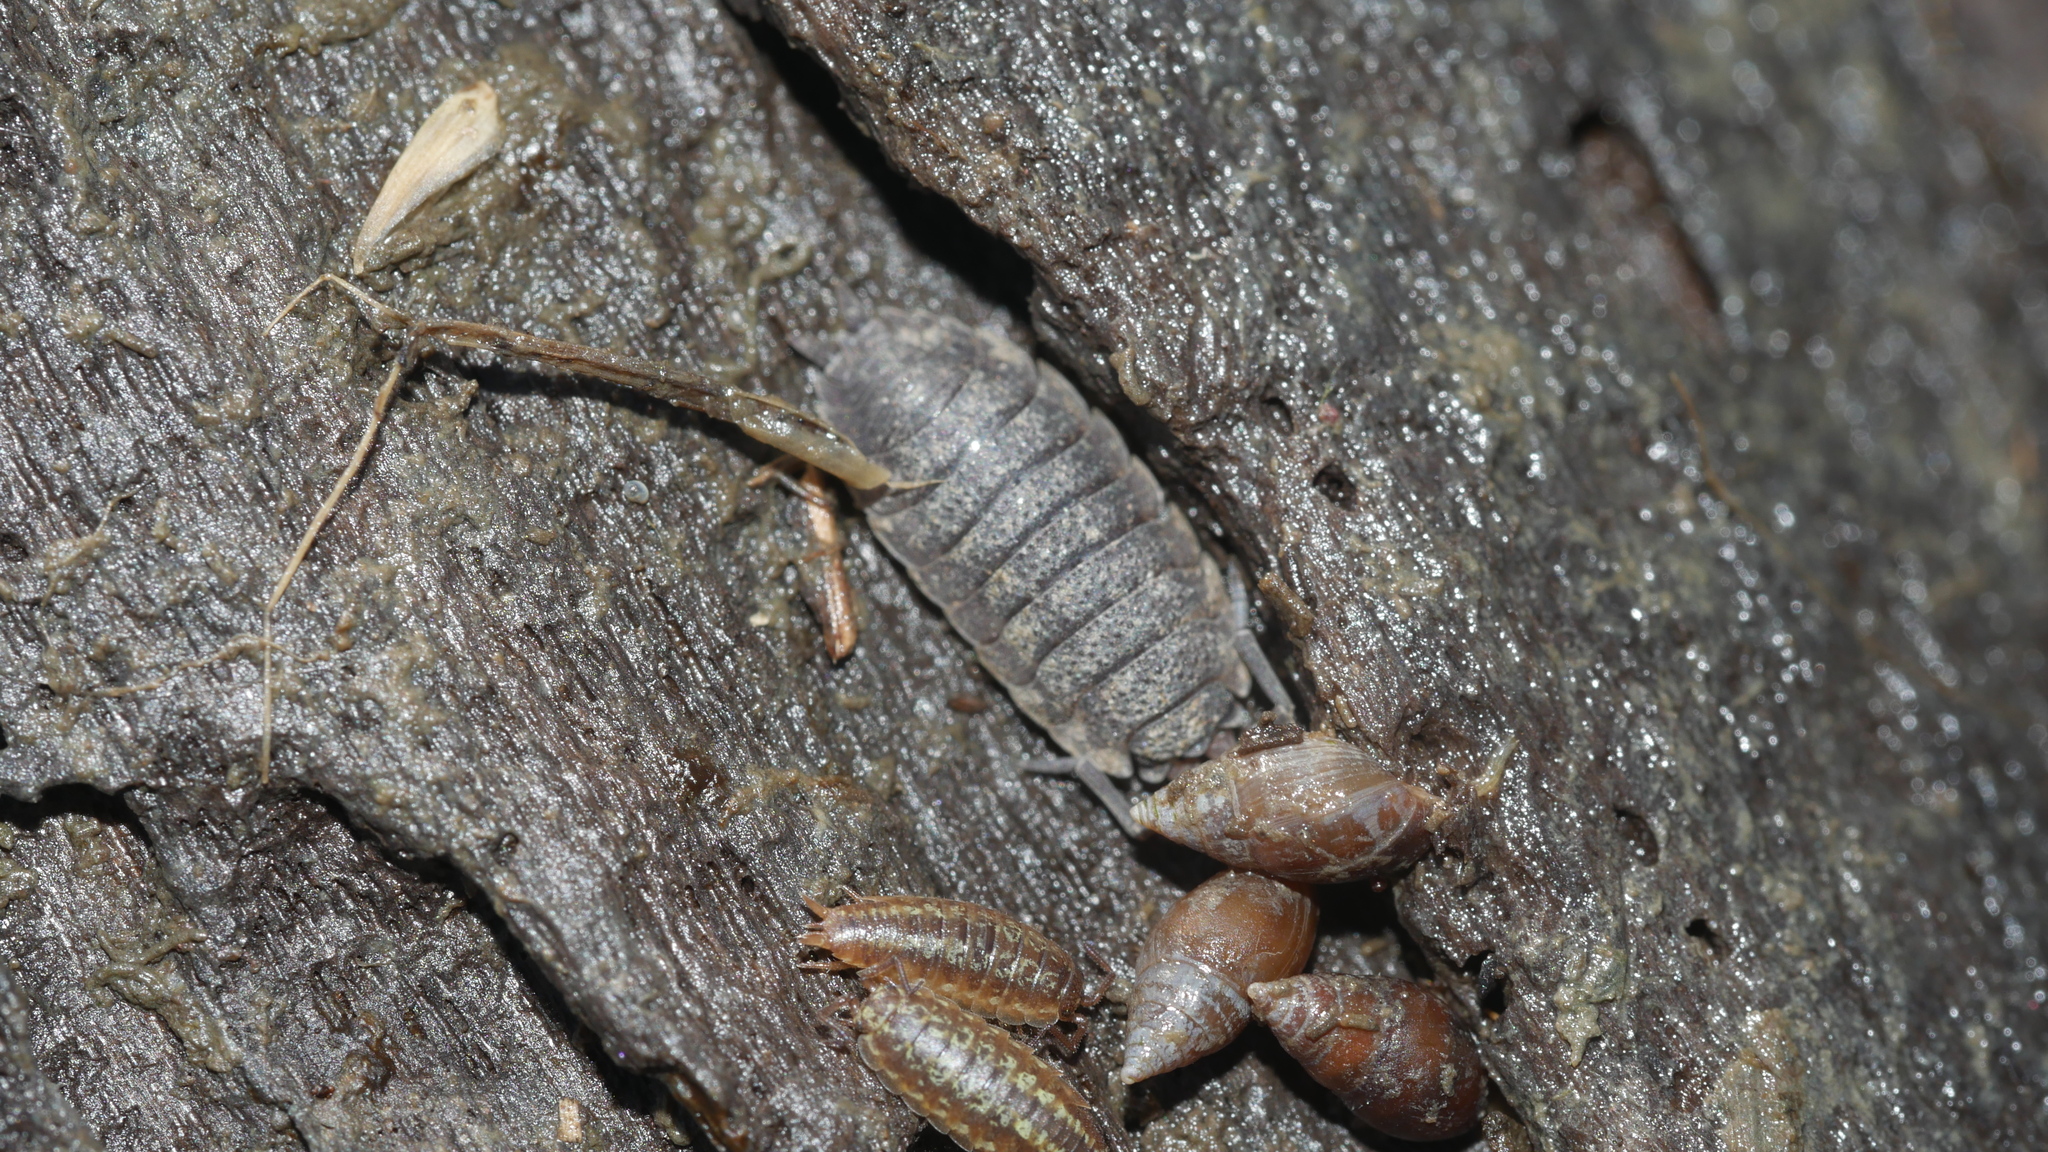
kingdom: Animalia
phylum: Arthropoda
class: Malacostraca
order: Isopoda
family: Porcellionidae
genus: Porcellio
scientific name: Porcellio scaber
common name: Common rough woodlouse
